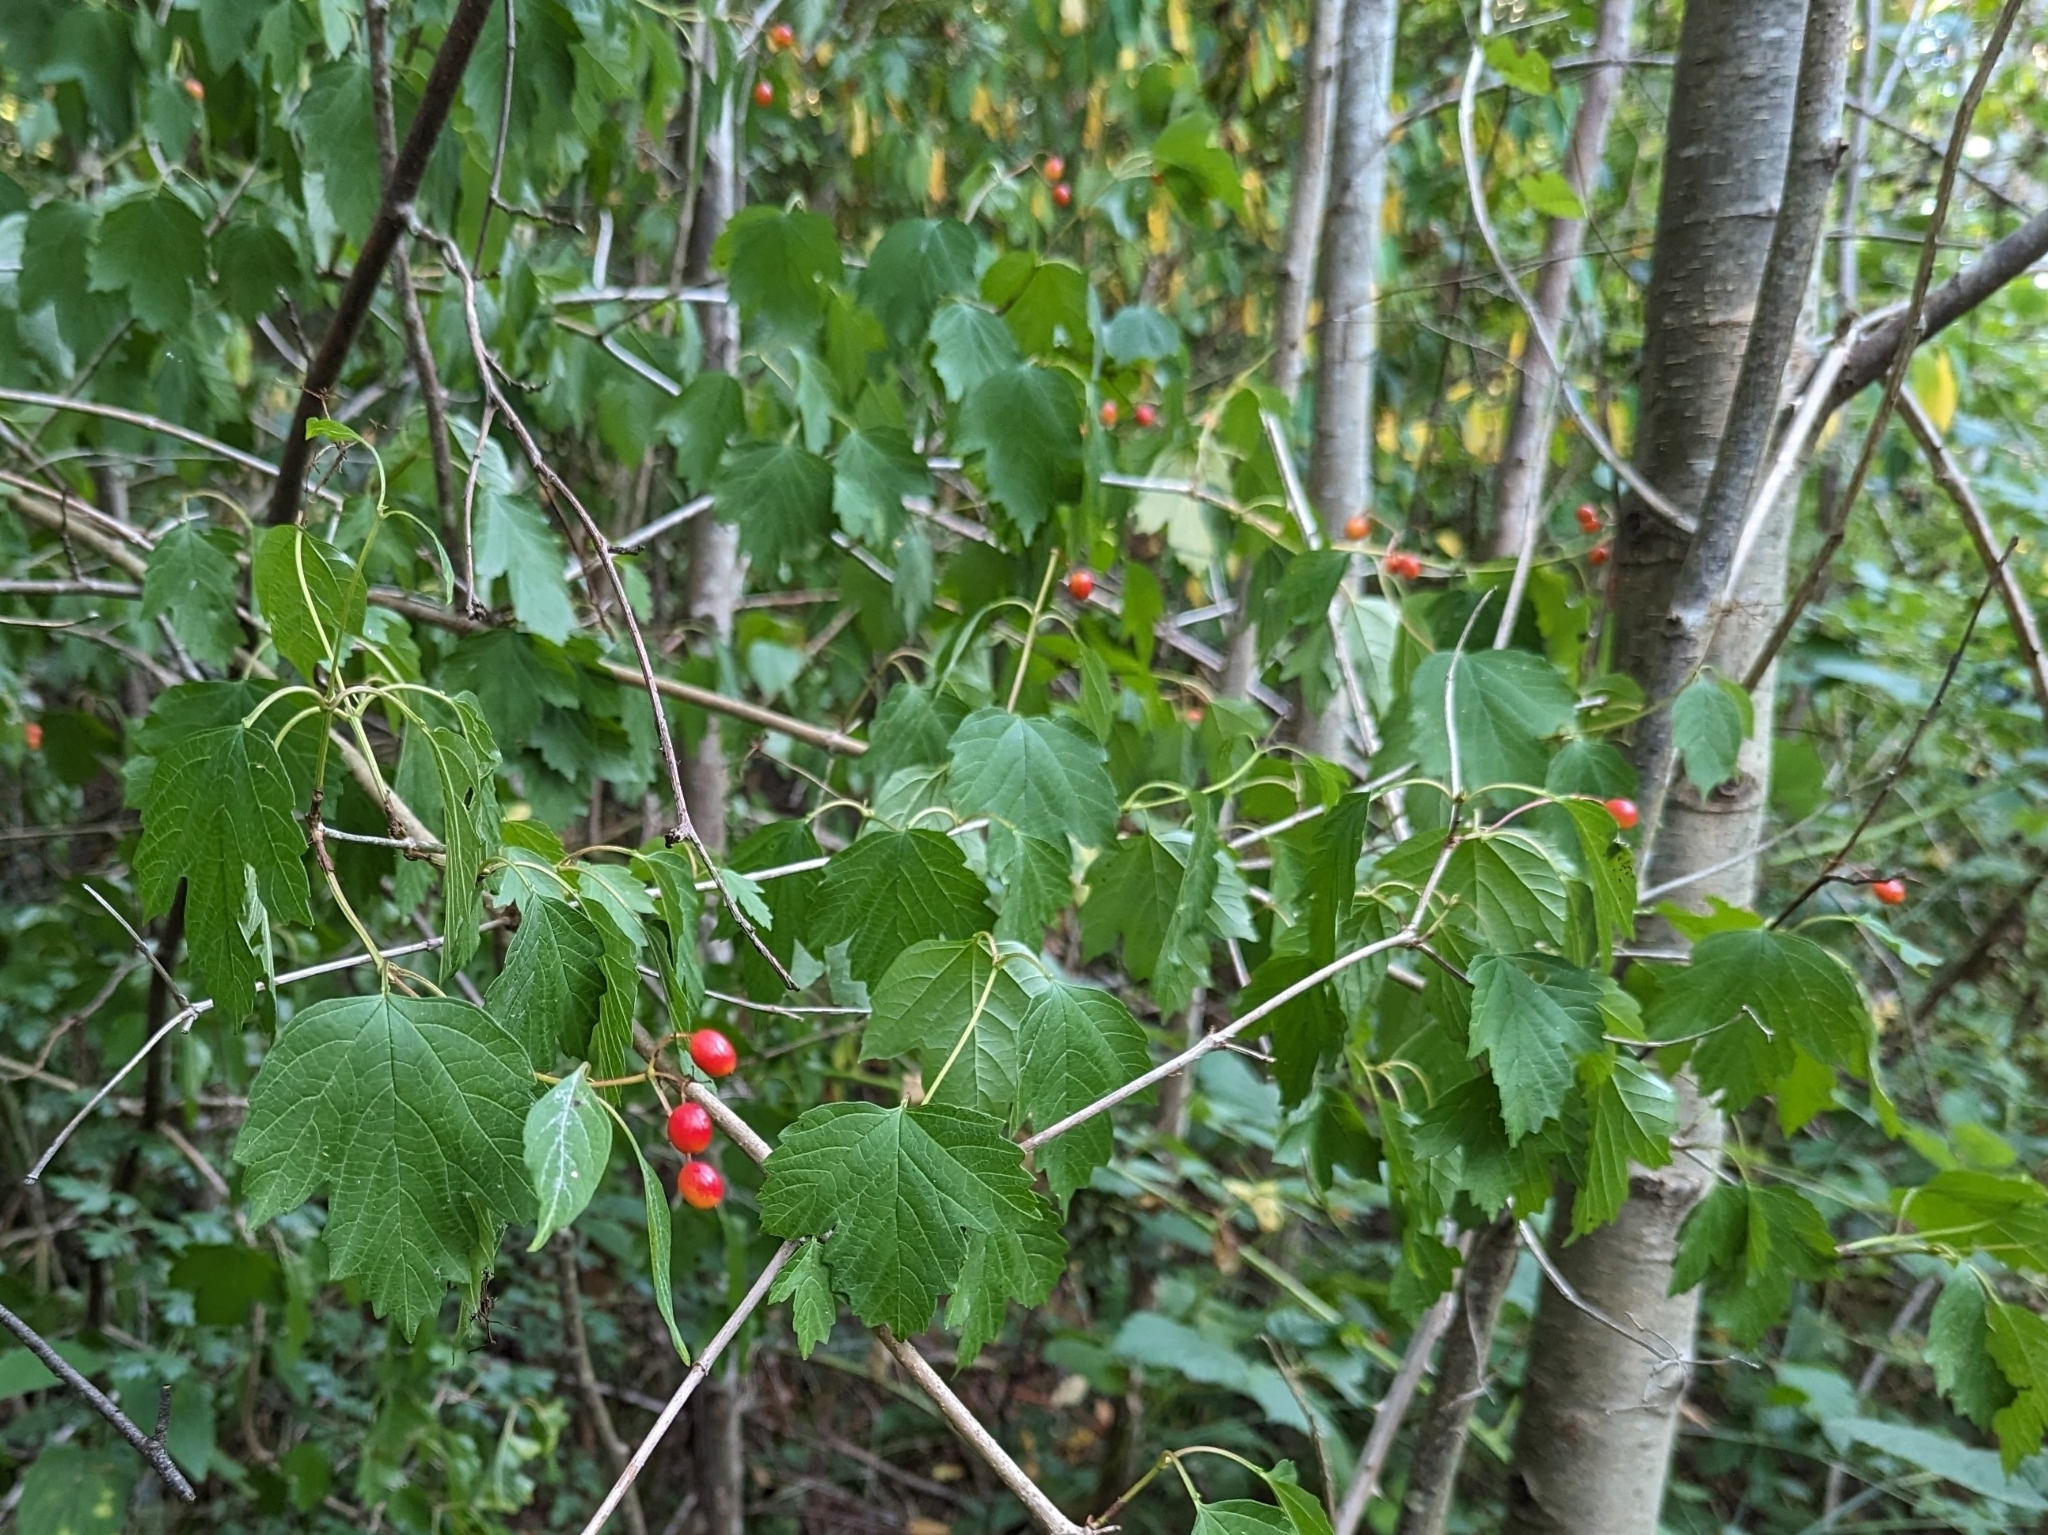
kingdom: Plantae
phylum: Tracheophyta
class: Magnoliopsida
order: Dipsacales
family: Viburnaceae
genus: Viburnum
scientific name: Viburnum opulus
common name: Guelder-rose
